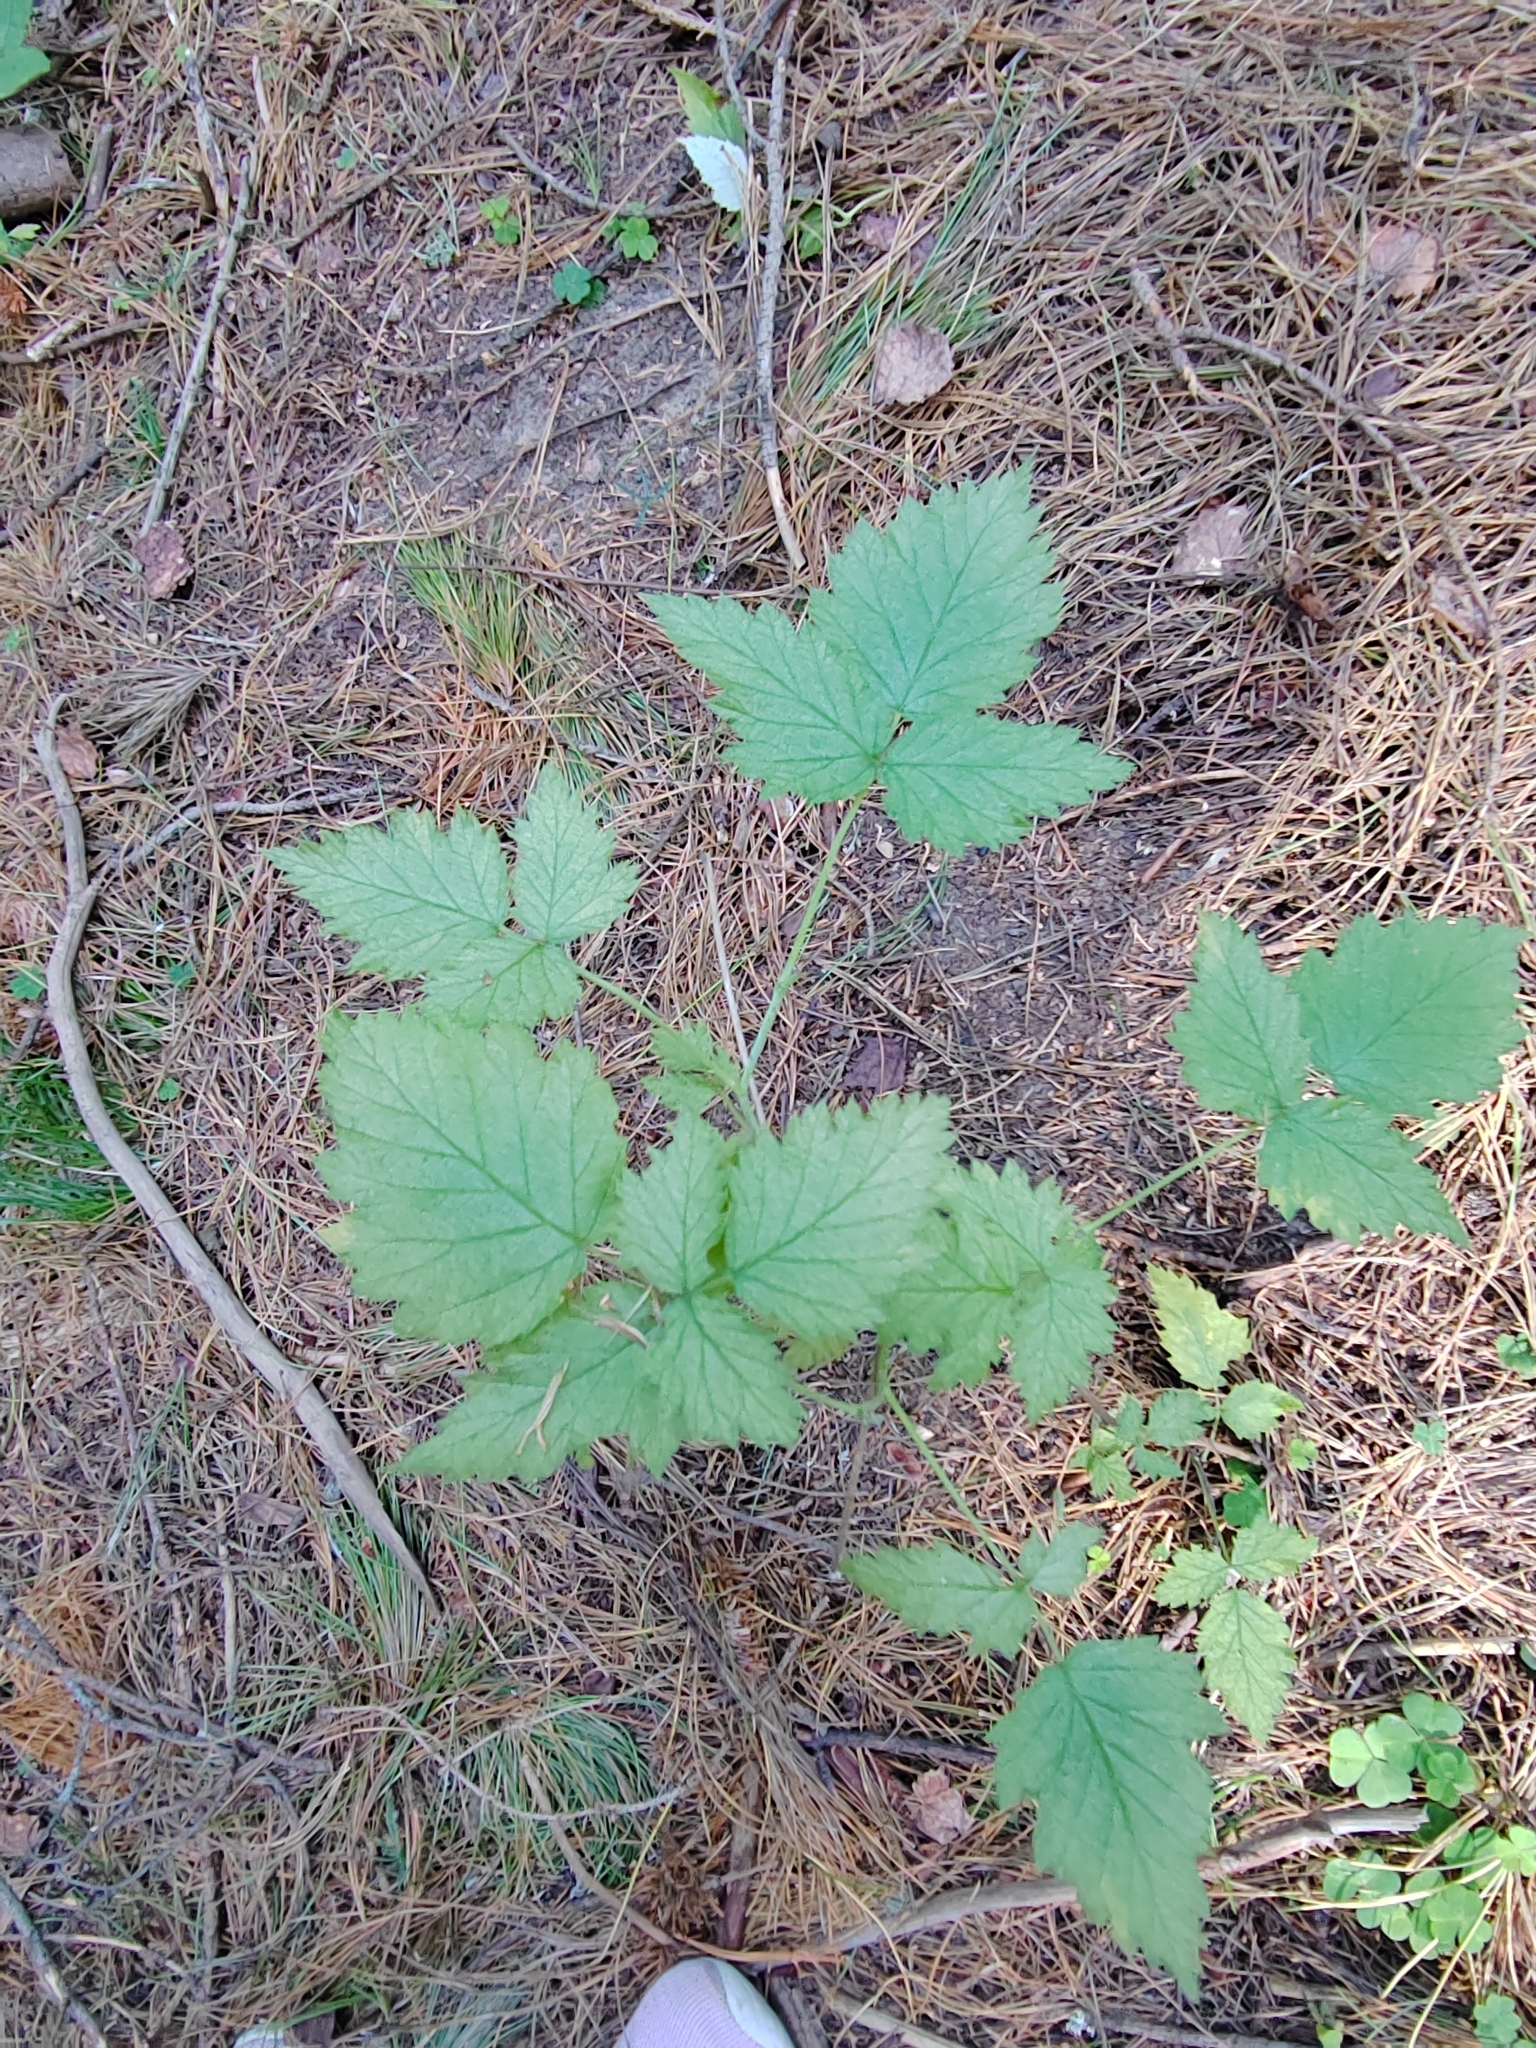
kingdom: Plantae
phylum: Tracheophyta
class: Magnoliopsida
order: Rosales
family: Rosaceae
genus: Rubus
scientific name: Rubus idaeus
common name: Raspberry
